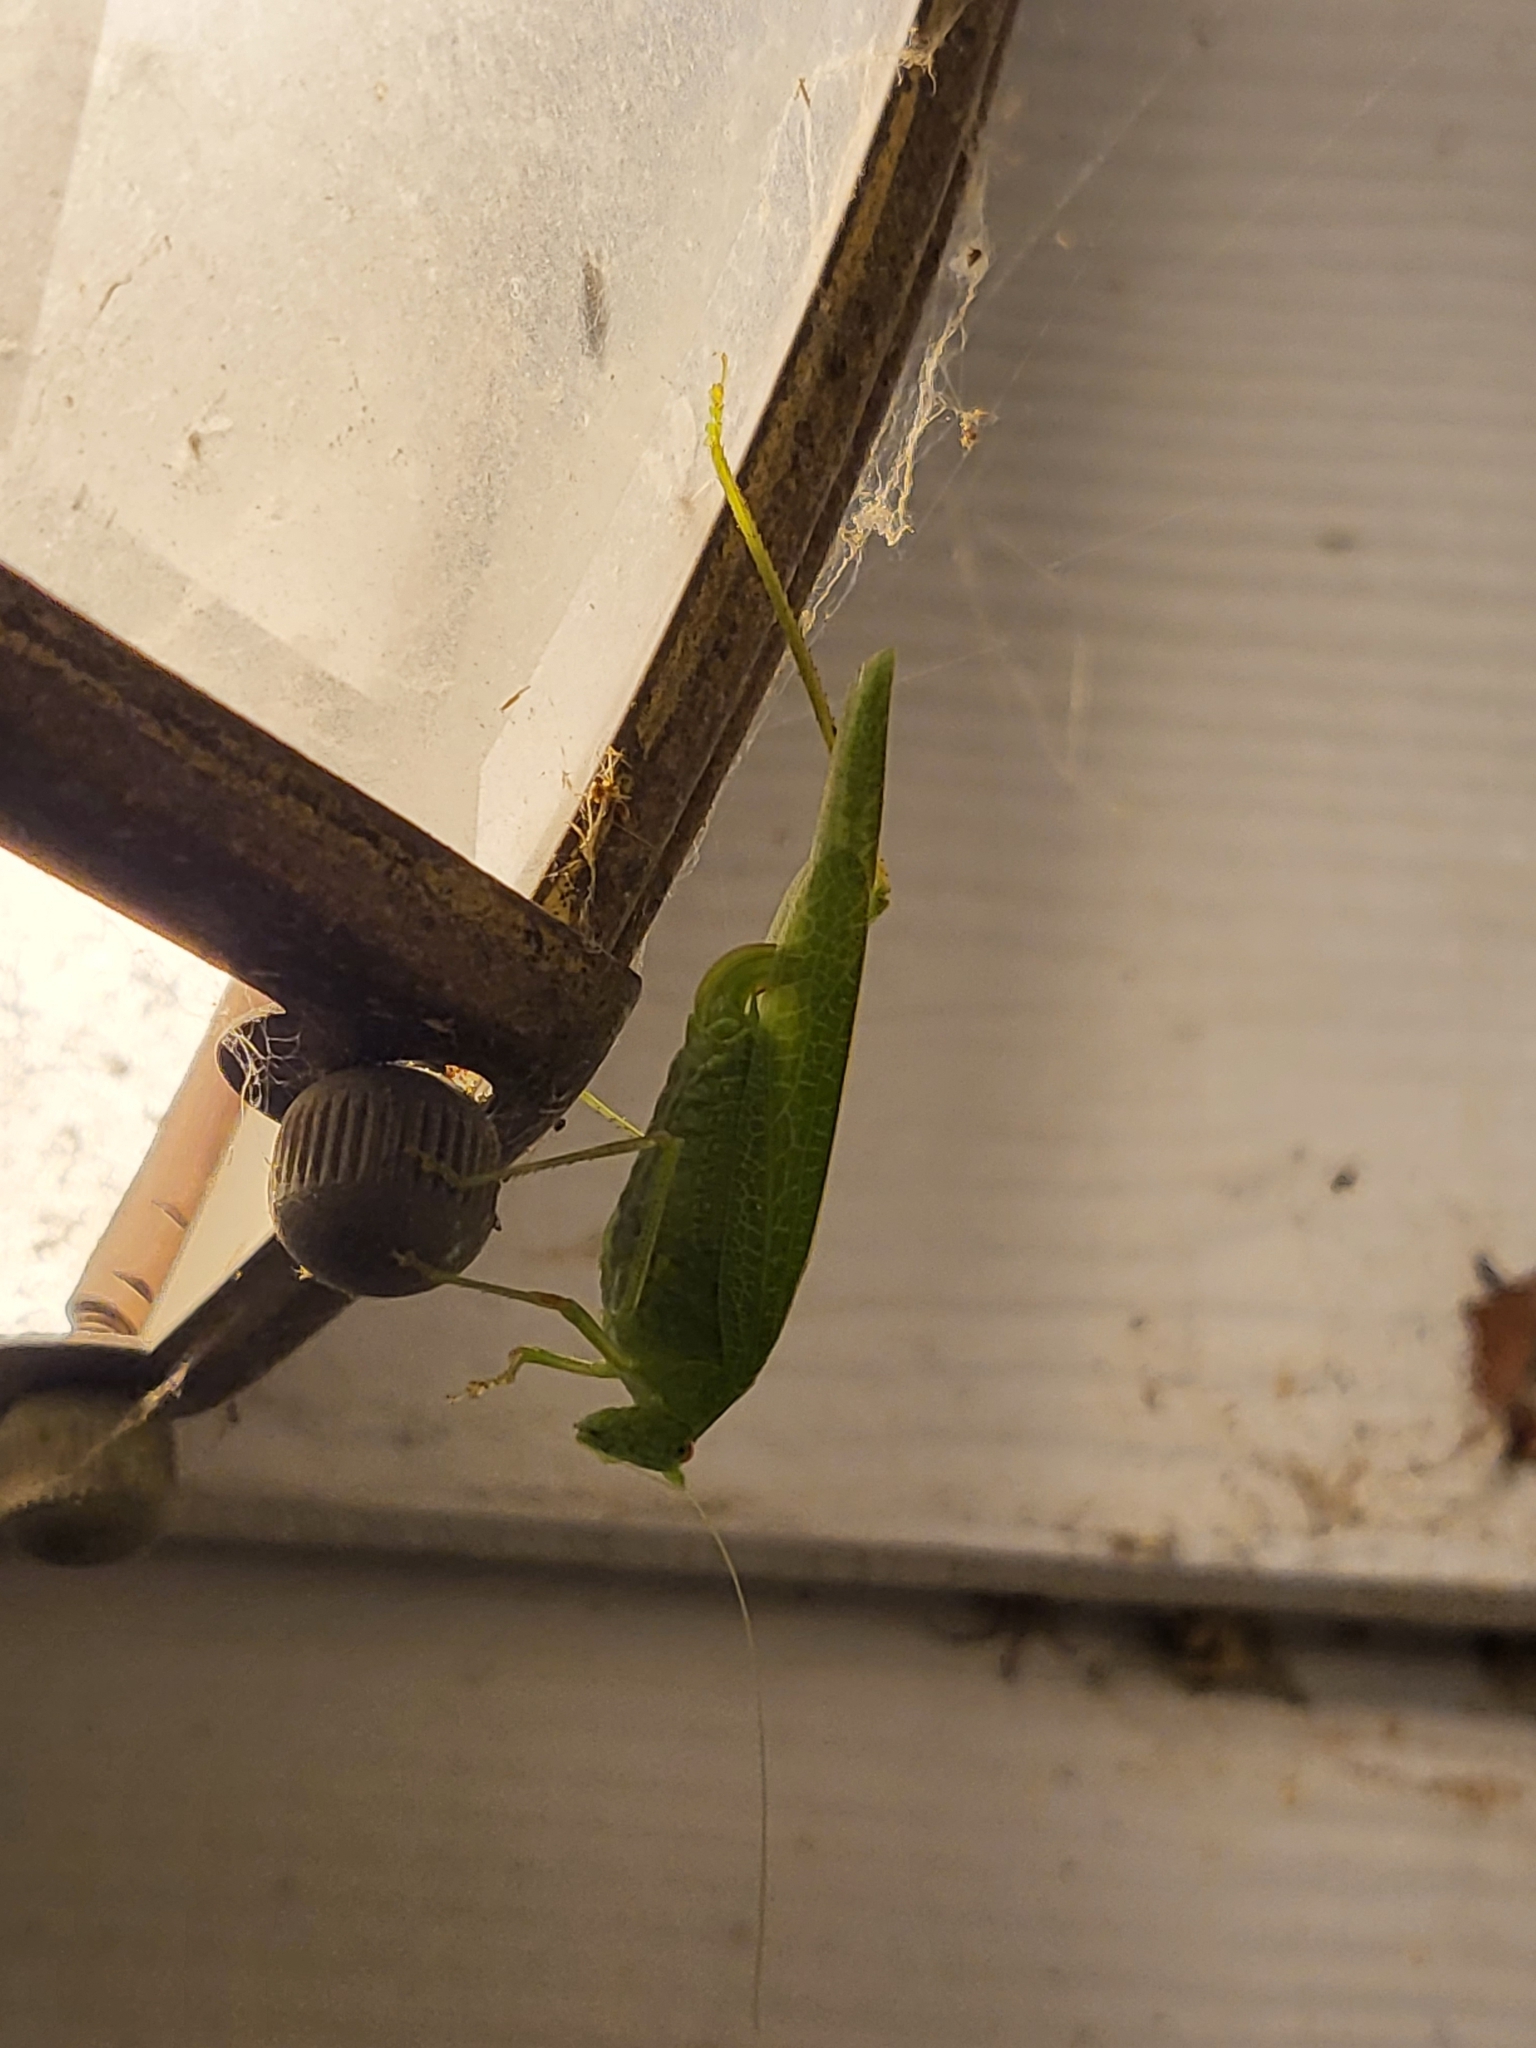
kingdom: Animalia
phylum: Arthropoda
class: Insecta
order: Orthoptera
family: Tettigoniidae
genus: Phaneroptera
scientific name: Phaneroptera nana
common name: Southern sickle bush-cricket
